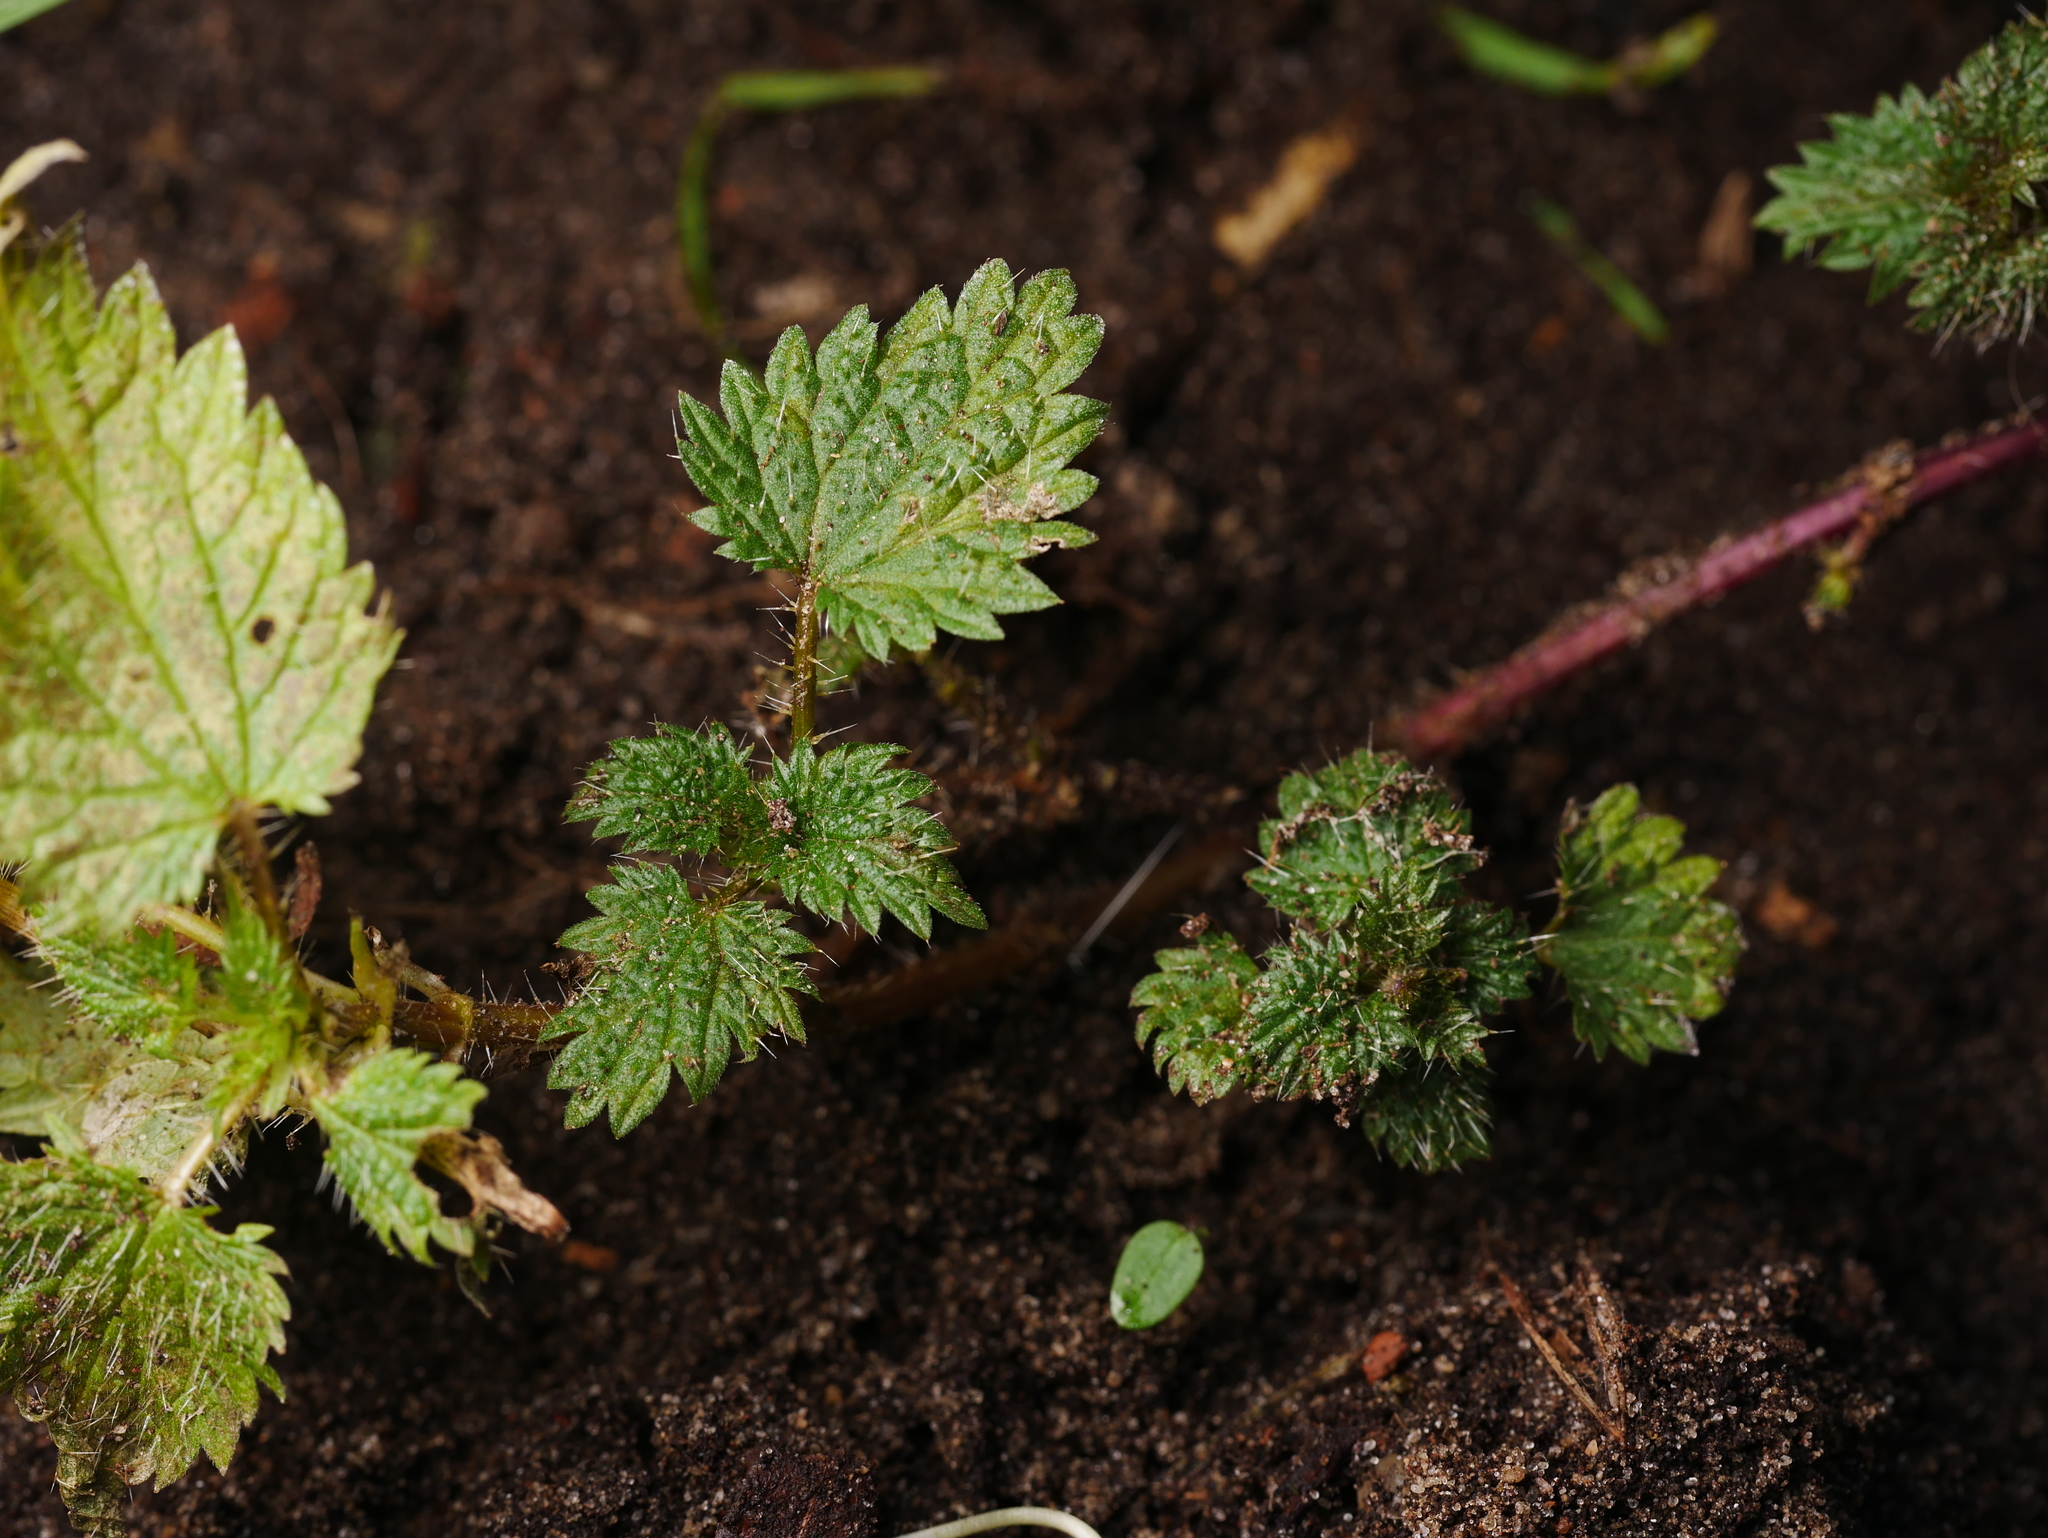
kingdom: Plantae
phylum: Tracheophyta
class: Magnoliopsida
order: Rosales
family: Urticaceae
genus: Urtica
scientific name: Urtica dioica
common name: Common nettle
